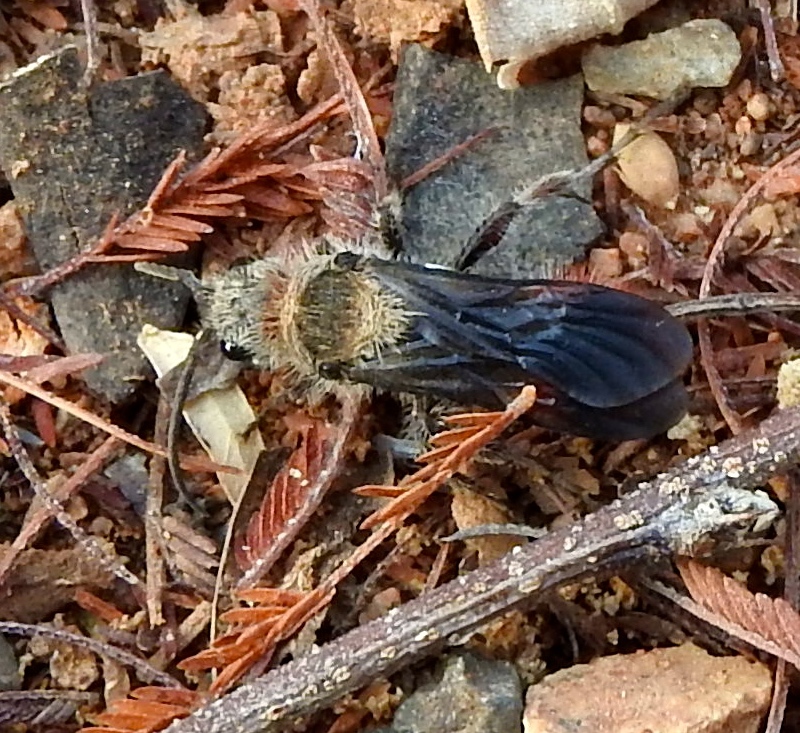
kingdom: Animalia
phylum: Arthropoda
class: Insecta
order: Hymenoptera
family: Mutillidae
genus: Dasymutilla
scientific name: Dasymutilla foxi
